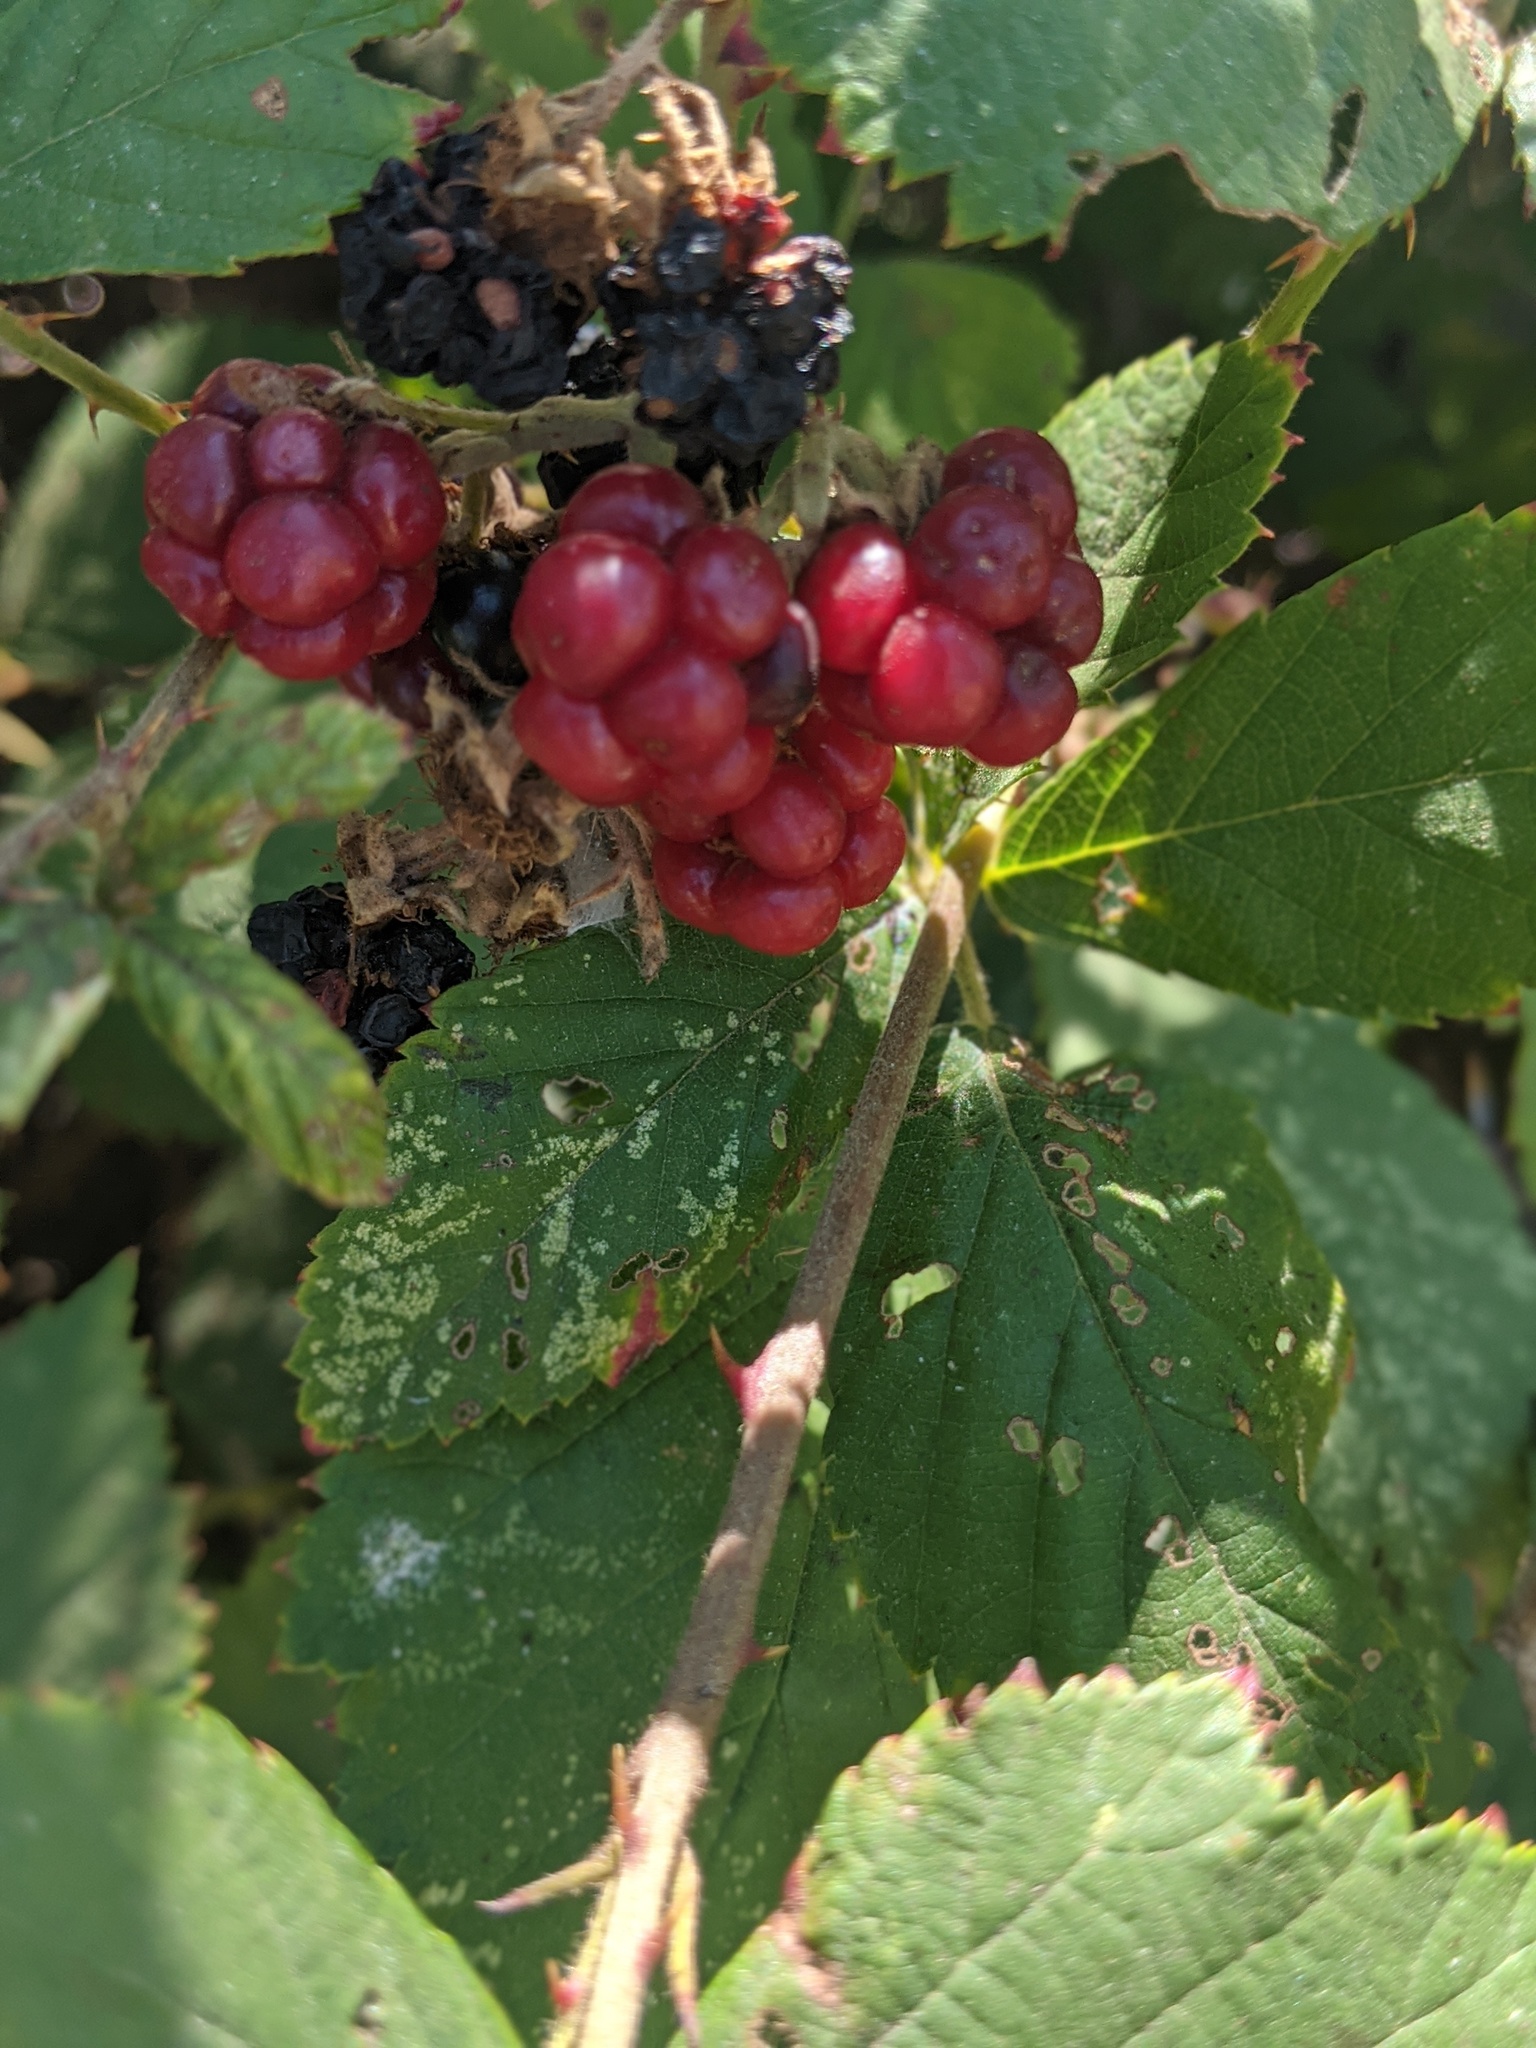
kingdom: Plantae
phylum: Tracheophyta
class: Magnoliopsida
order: Rosales
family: Rosaceae
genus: Rubus
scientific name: Rubus armeniacus
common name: Himalayan blackberry
